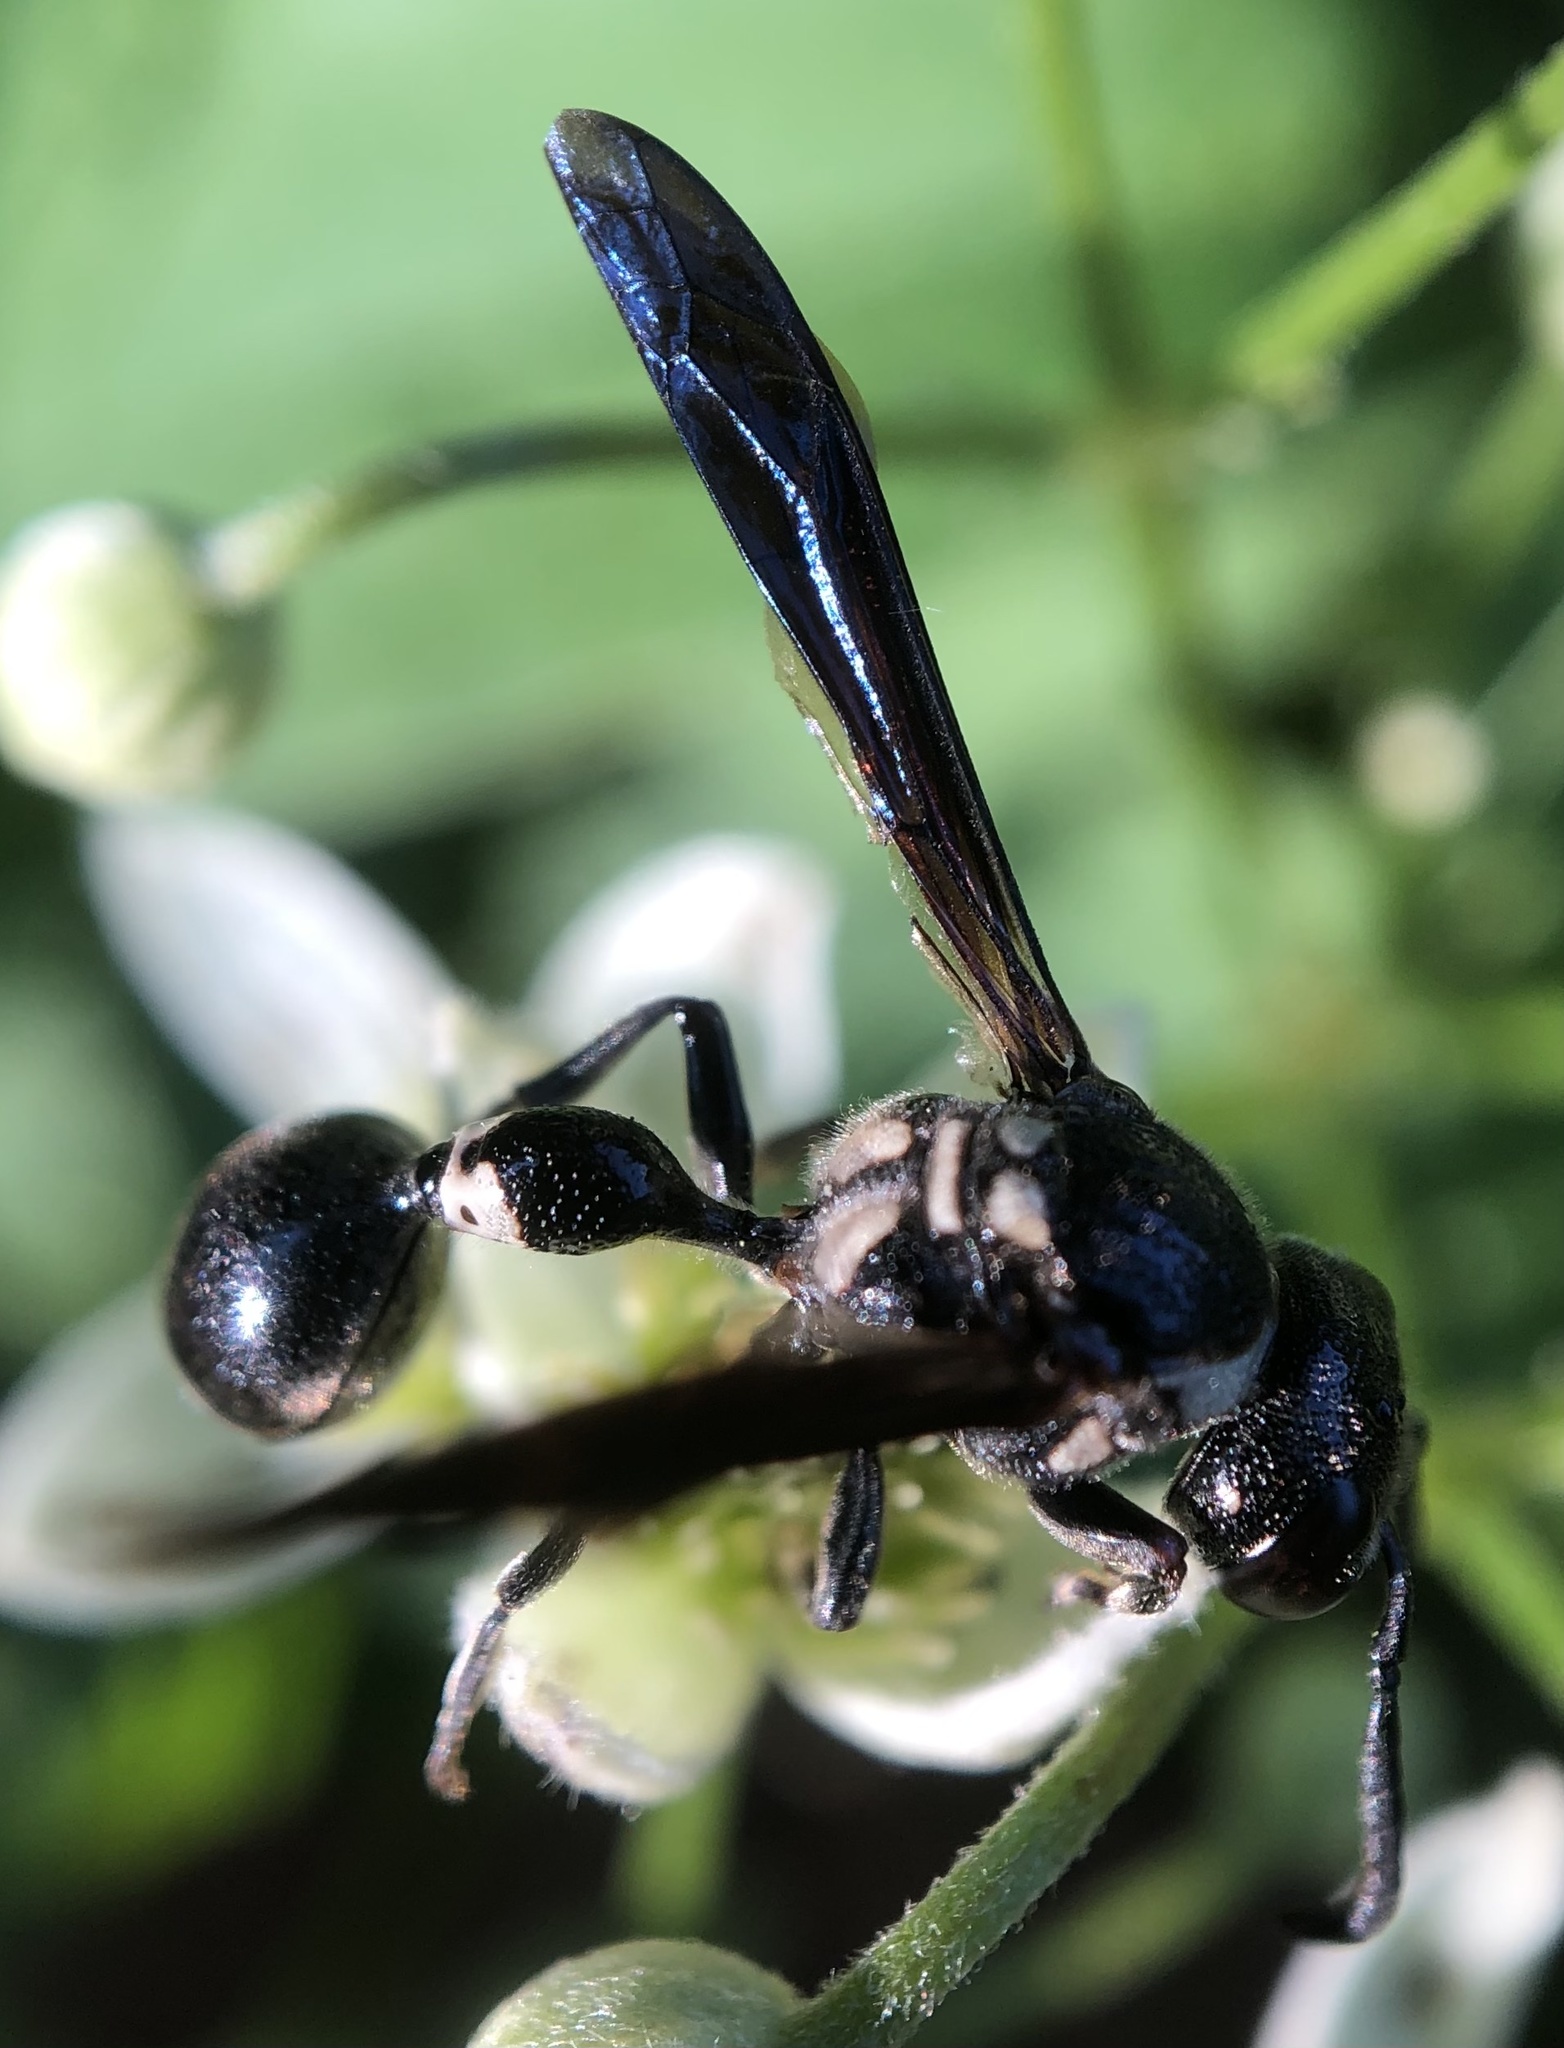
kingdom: Animalia
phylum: Arthropoda
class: Insecta
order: Hymenoptera
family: Eumenidae
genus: Zethus
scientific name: Zethus spinipes
